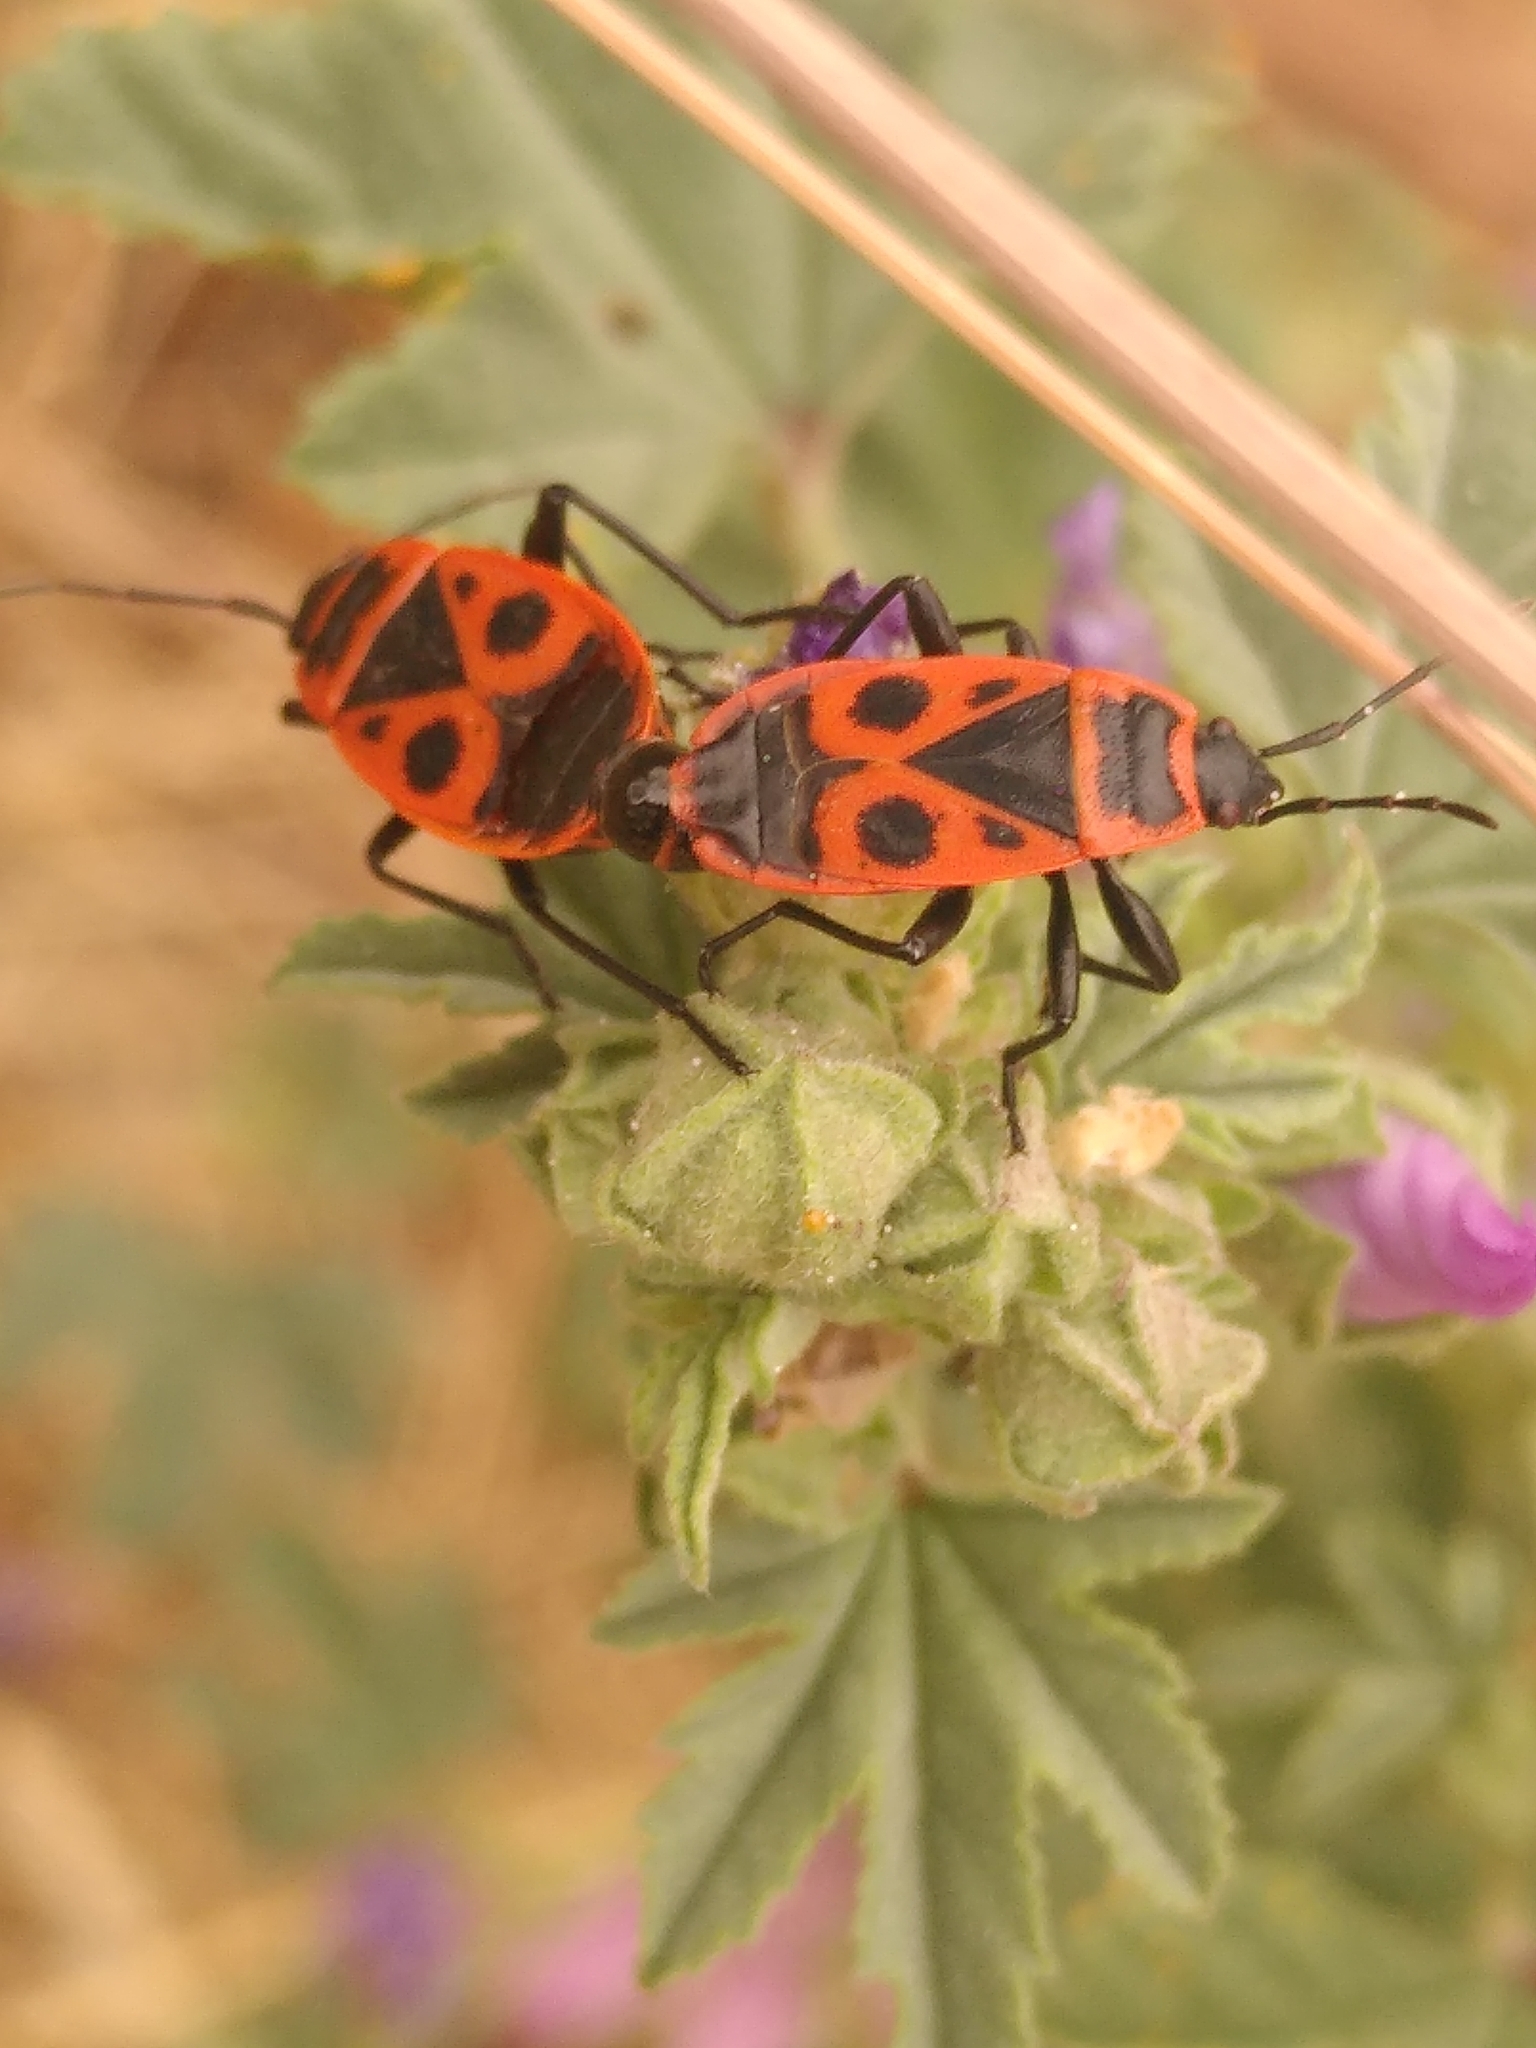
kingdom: Animalia
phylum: Arthropoda
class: Insecta
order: Hemiptera
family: Pyrrhocoridae
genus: Pyrrhocoris
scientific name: Pyrrhocoris apterus
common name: Firebug
